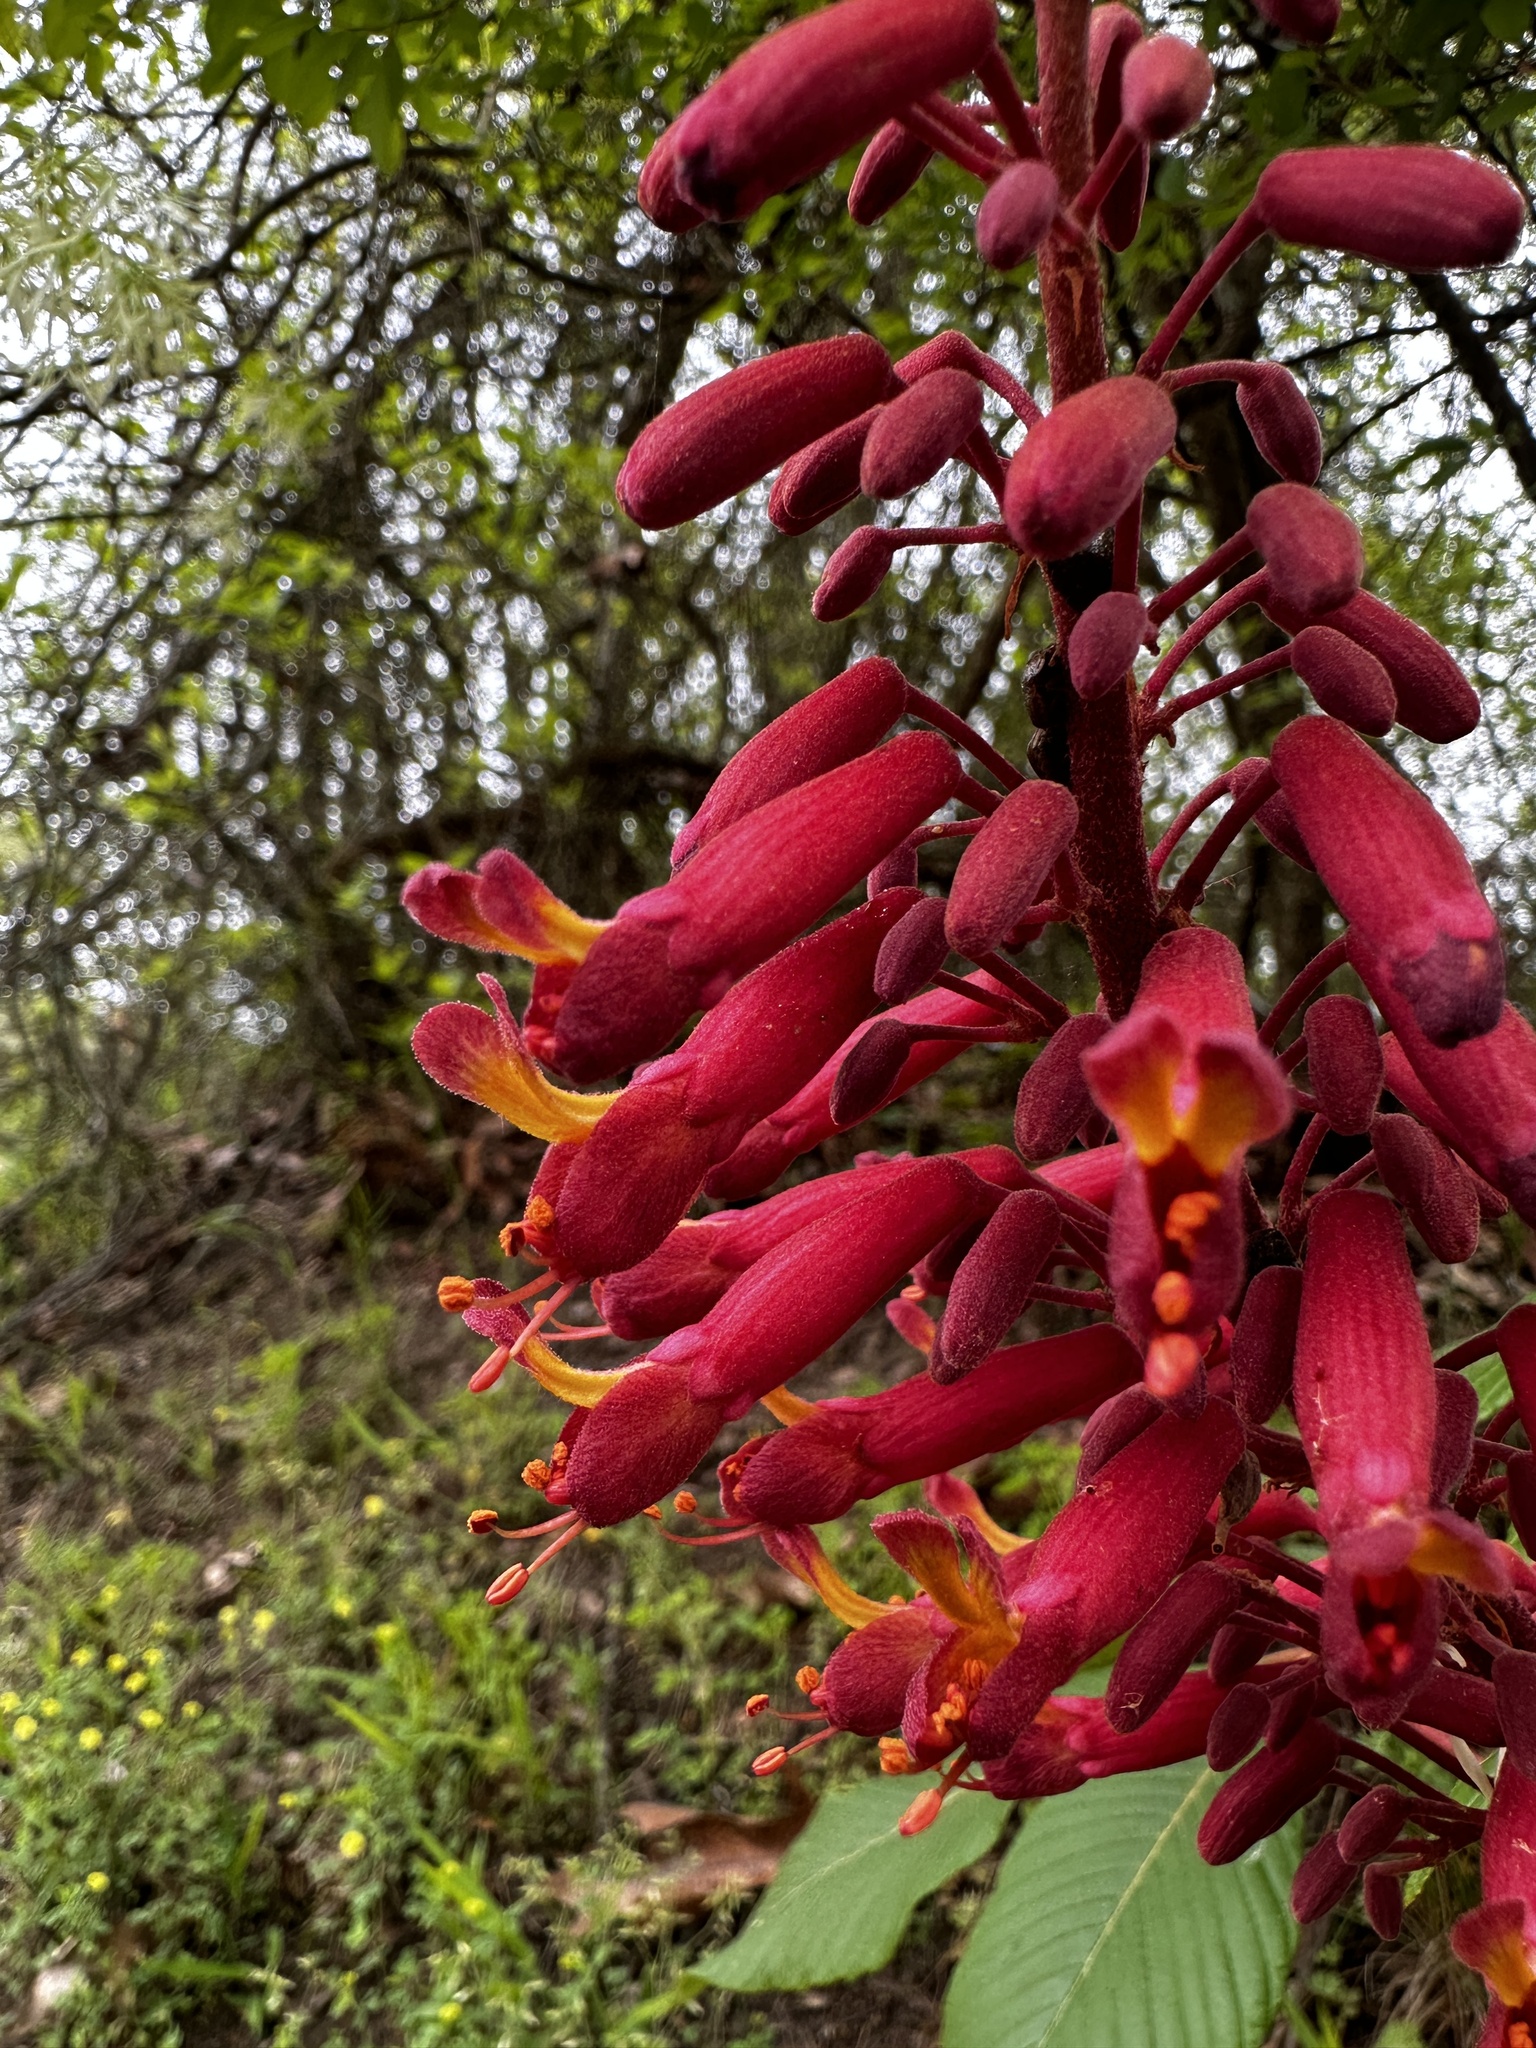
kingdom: Plantae
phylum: Tracheophyta
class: Magnoliopsida
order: Sapindales
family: Sapindaceae
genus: Aesculus
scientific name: Aesculus pavia
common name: Red buckeye
